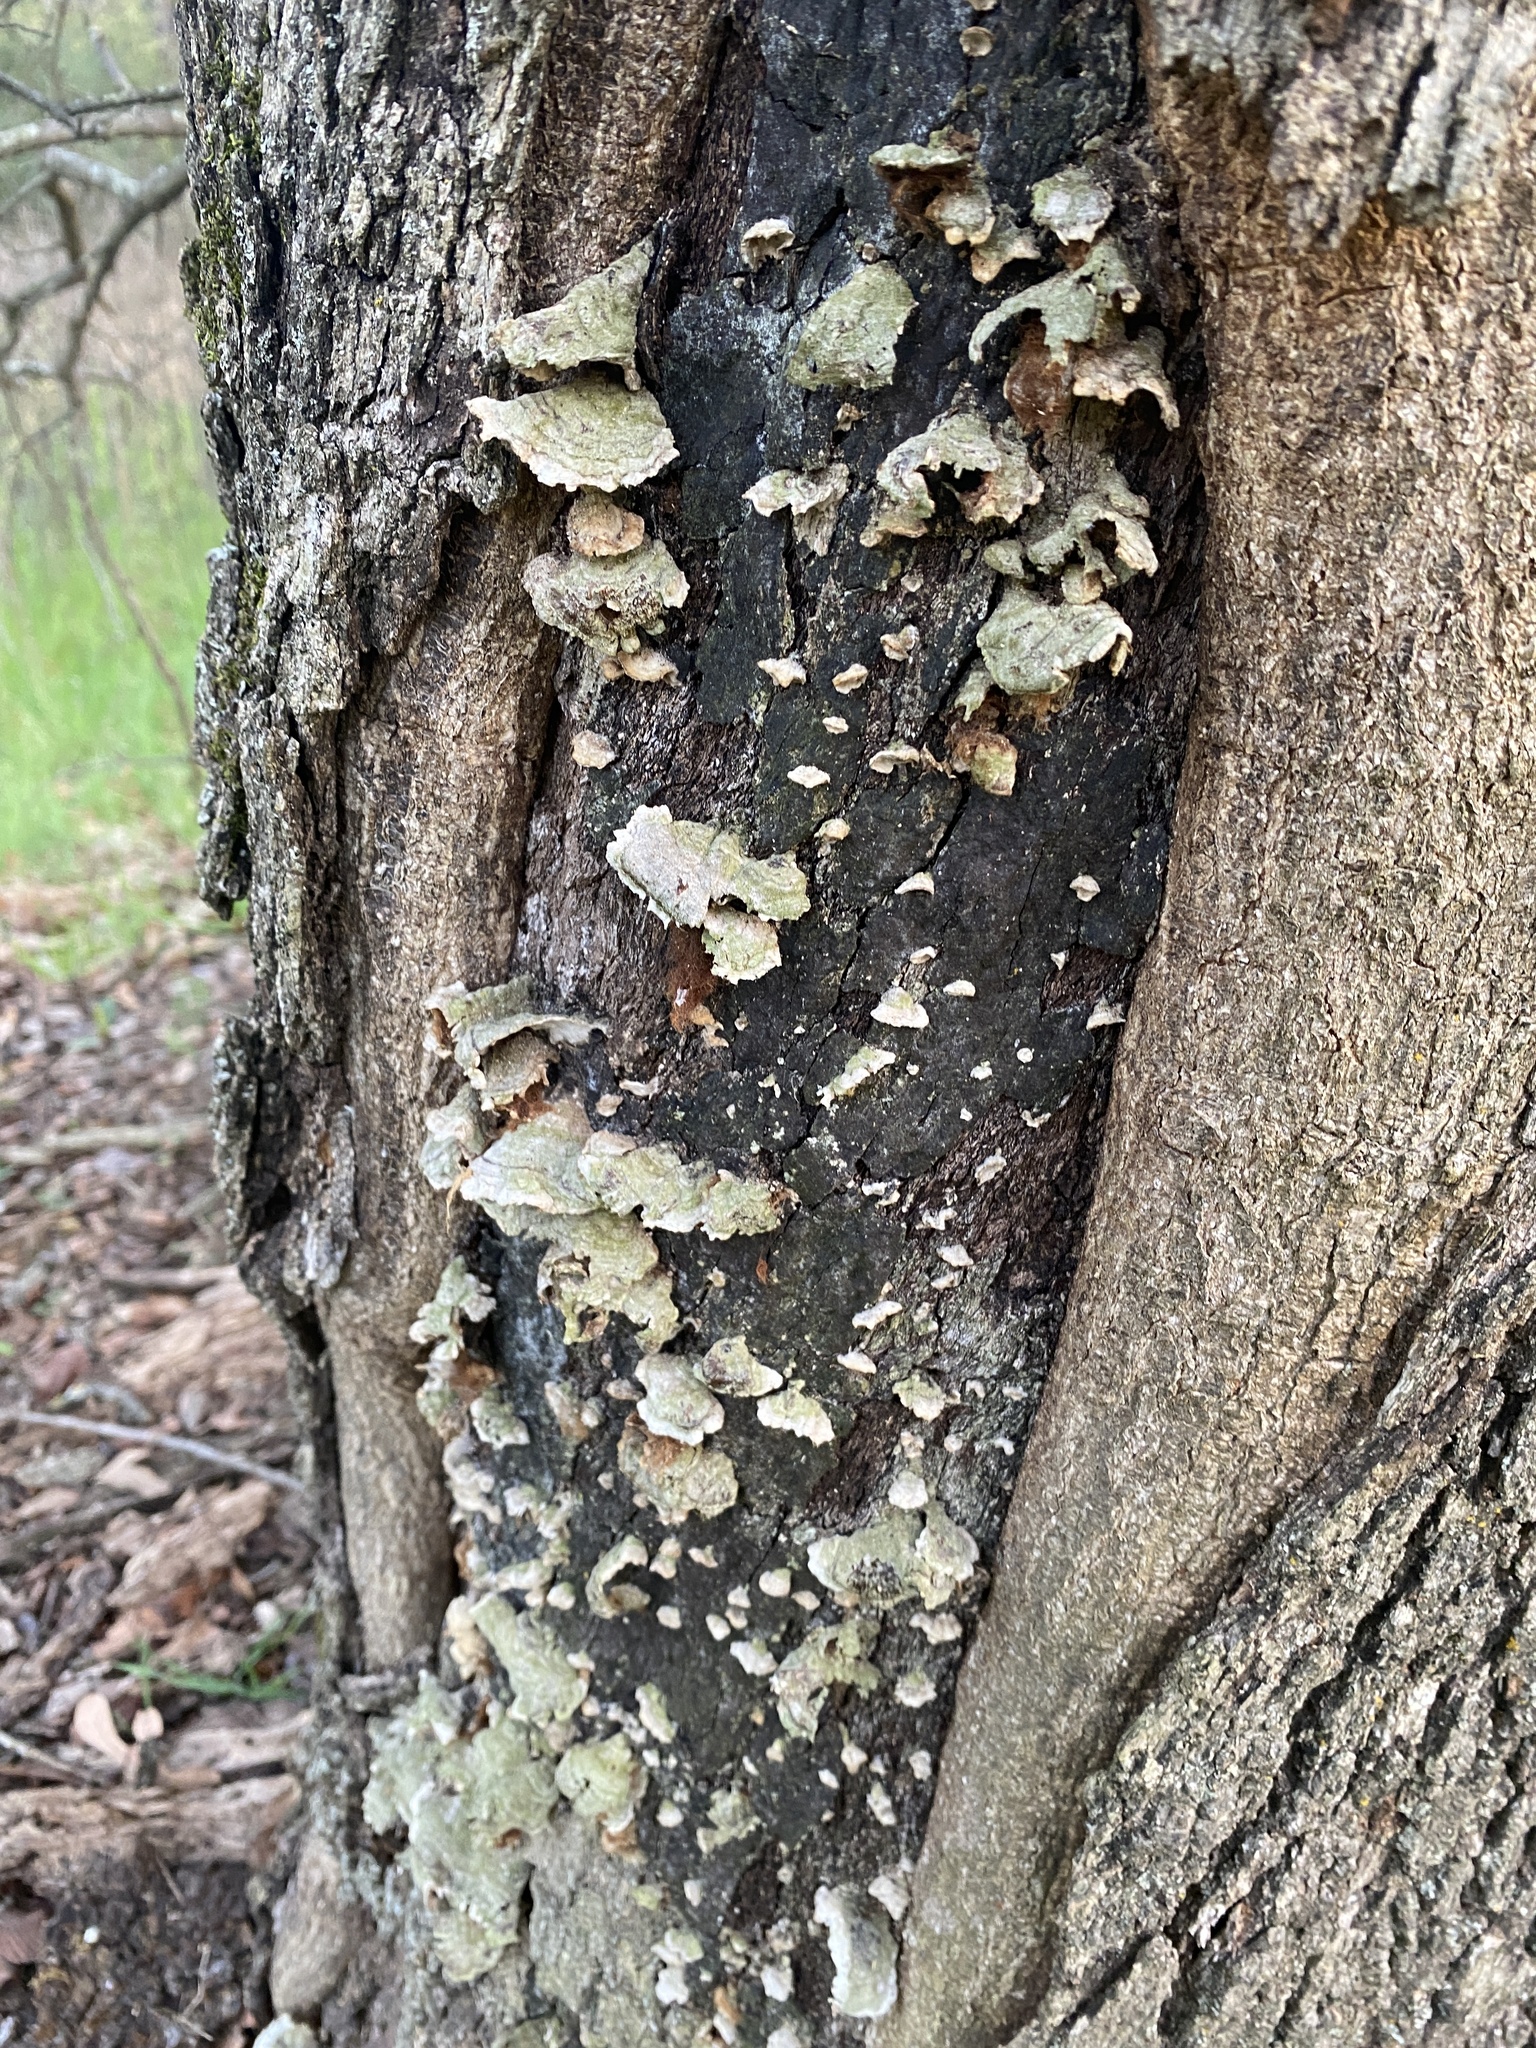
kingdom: Fungi
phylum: Basidiomycota
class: Agaricomycetes
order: Russulales
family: Stereaceae
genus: Stereum
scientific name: Stereum ostrea
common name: False turkeytail
